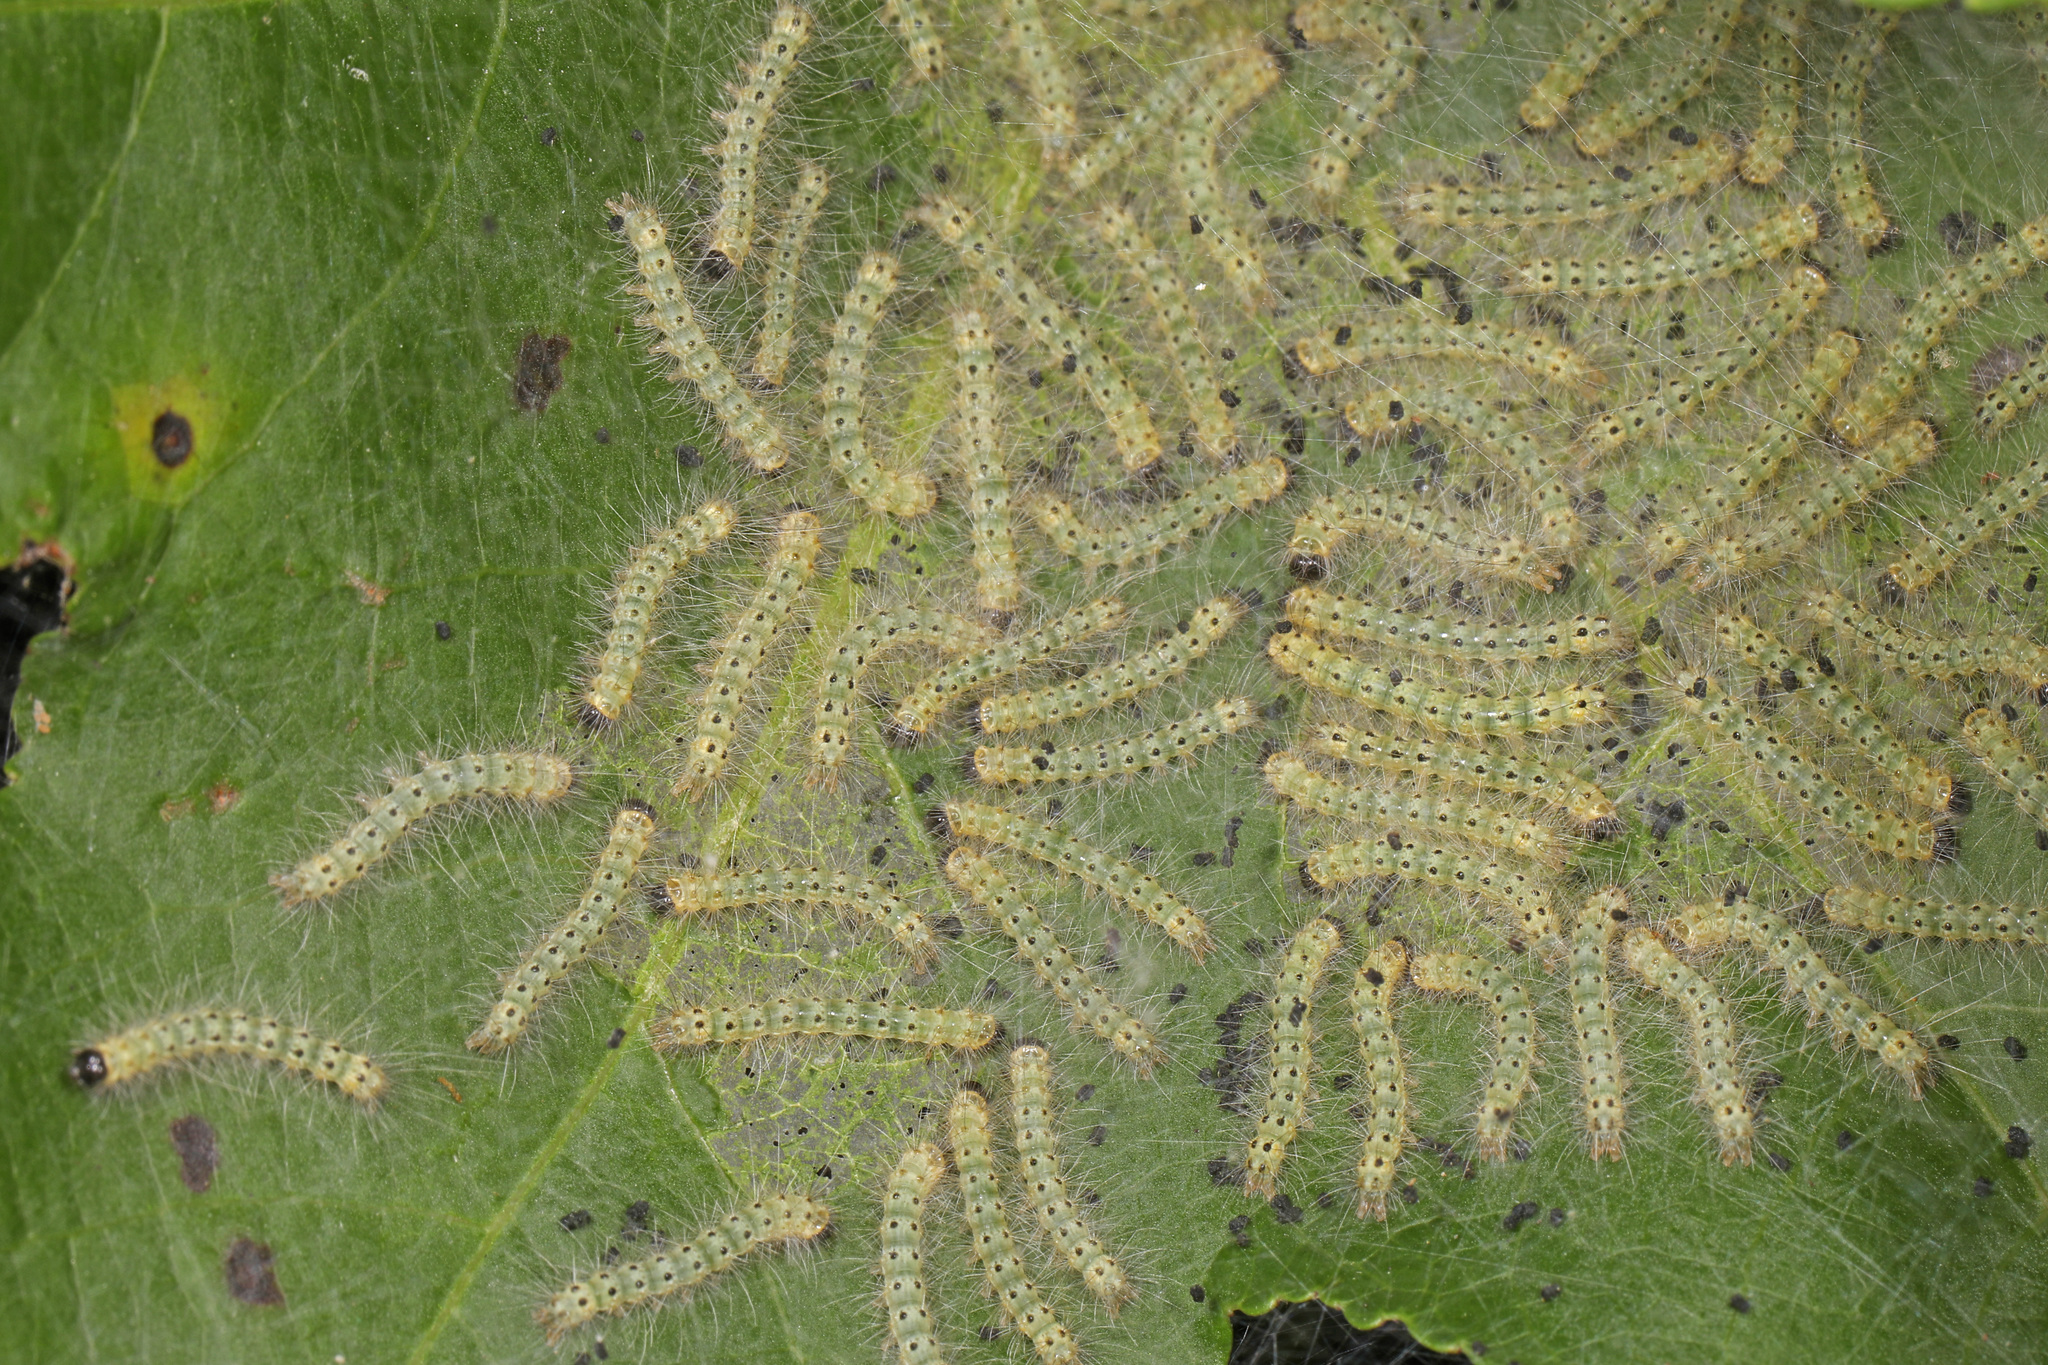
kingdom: Animalia
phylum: Arthropoda
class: Insecta
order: Lepidoptera
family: Erebidae
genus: Hyphantria
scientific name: Hyphantria cunea
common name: American white moth
